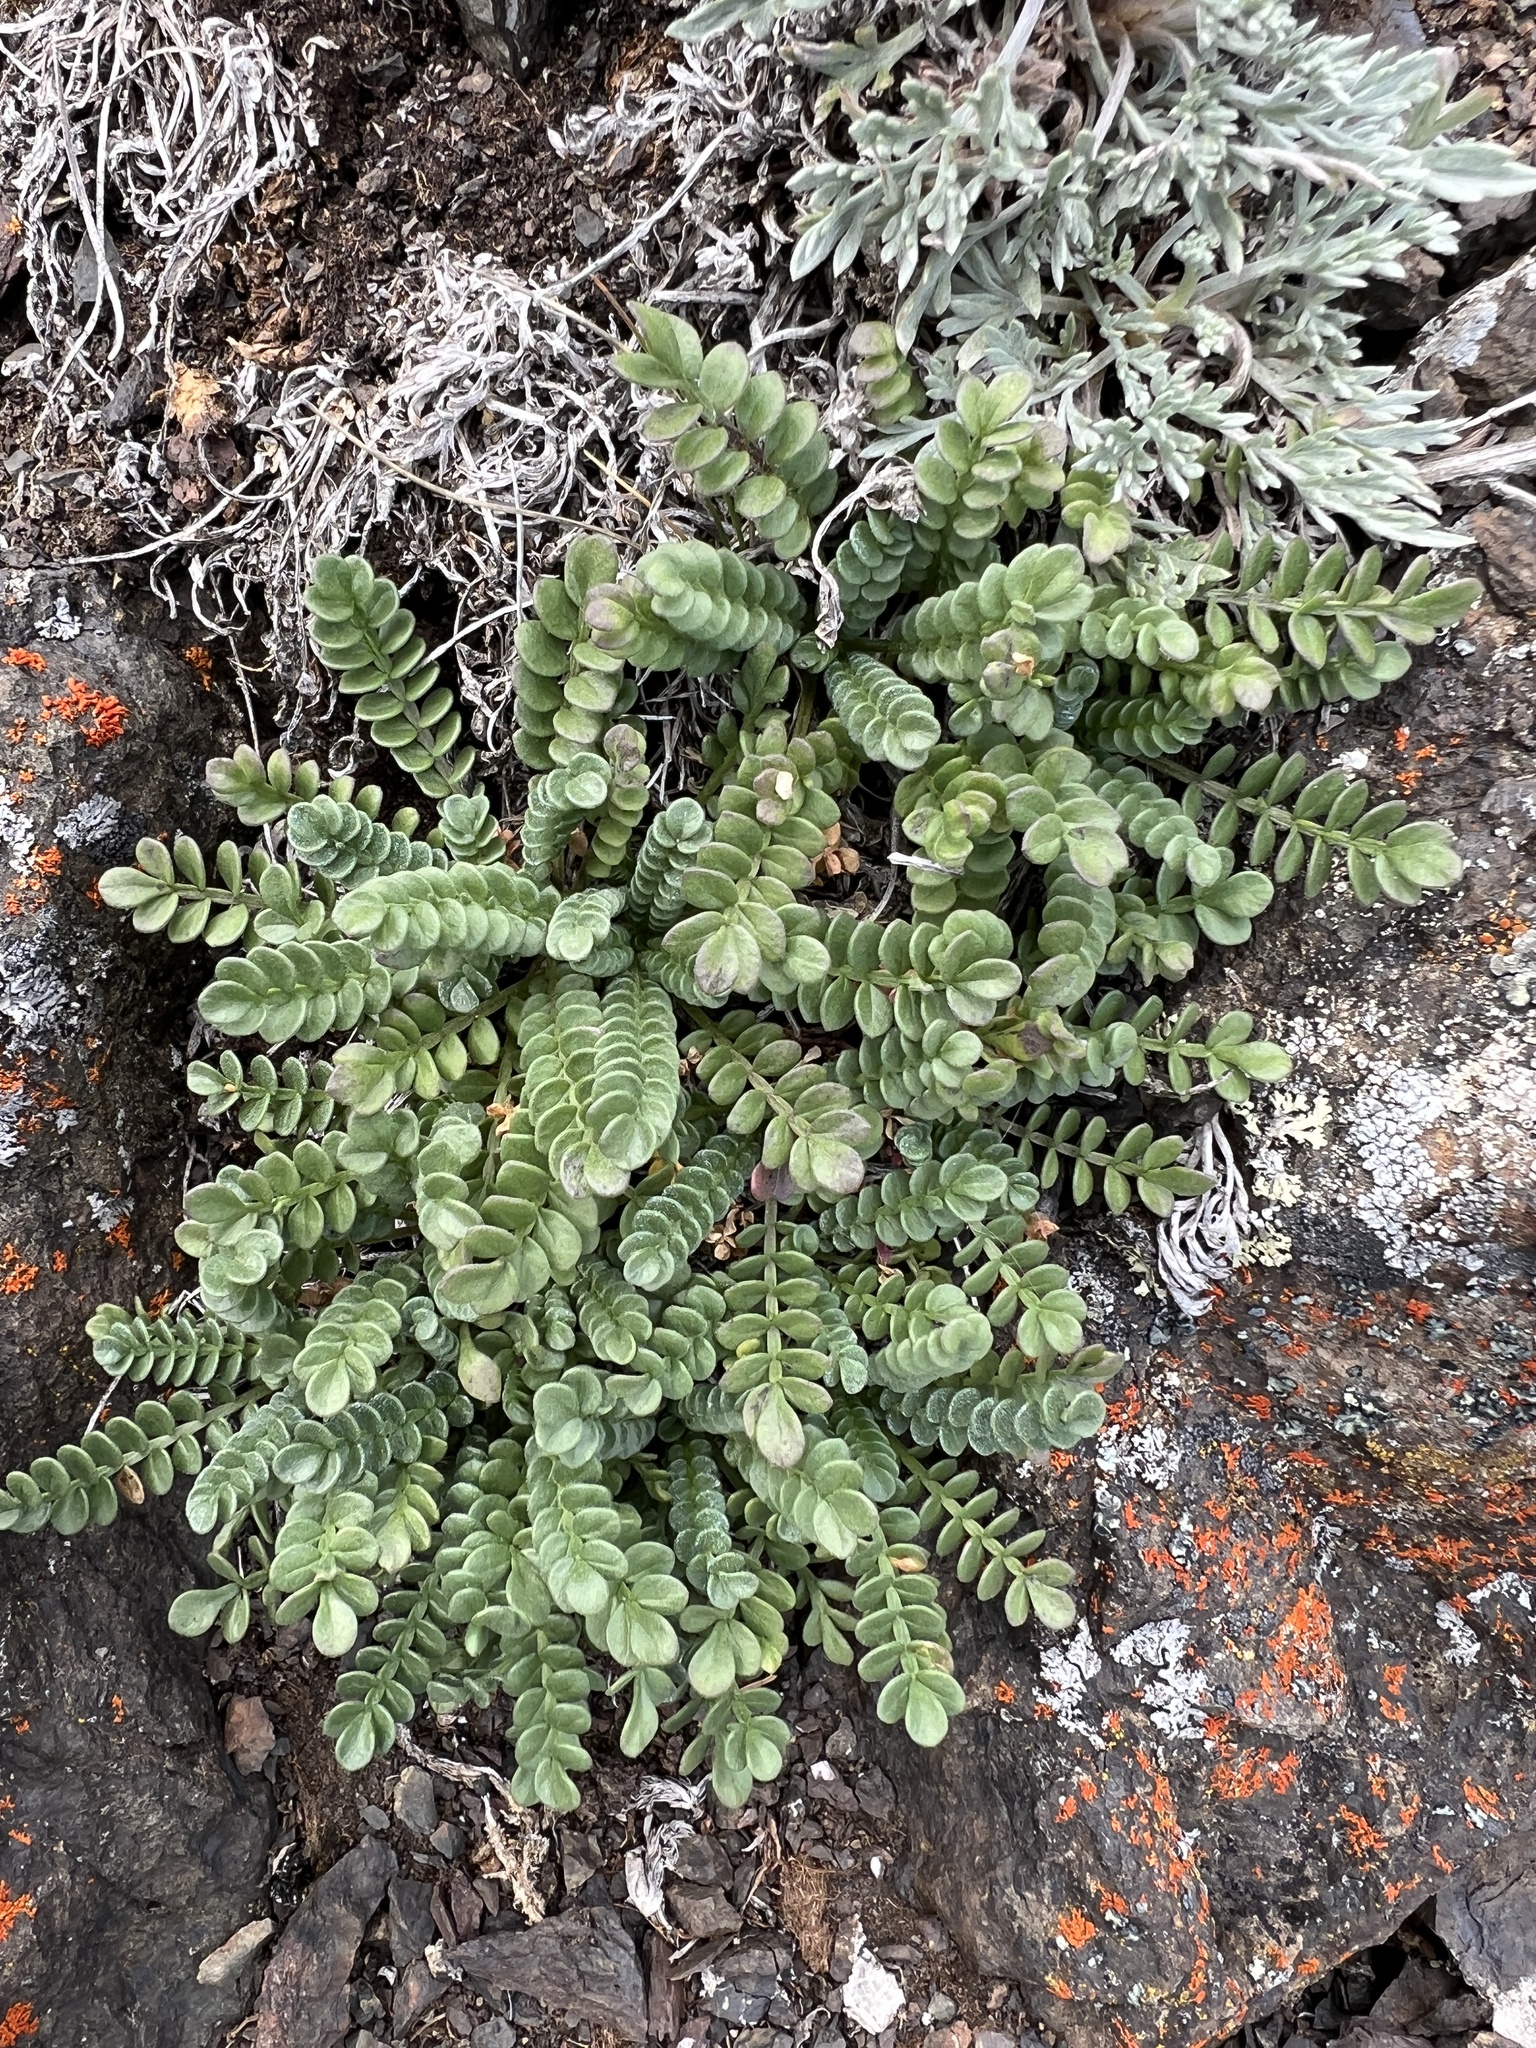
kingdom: Plantae
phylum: Tracheophyta
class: Magnoliopsida
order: Ericales
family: Polemoniaceae
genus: Polemonium
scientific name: Polemonium pulcherrimum
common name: Short jacob's-ladder
